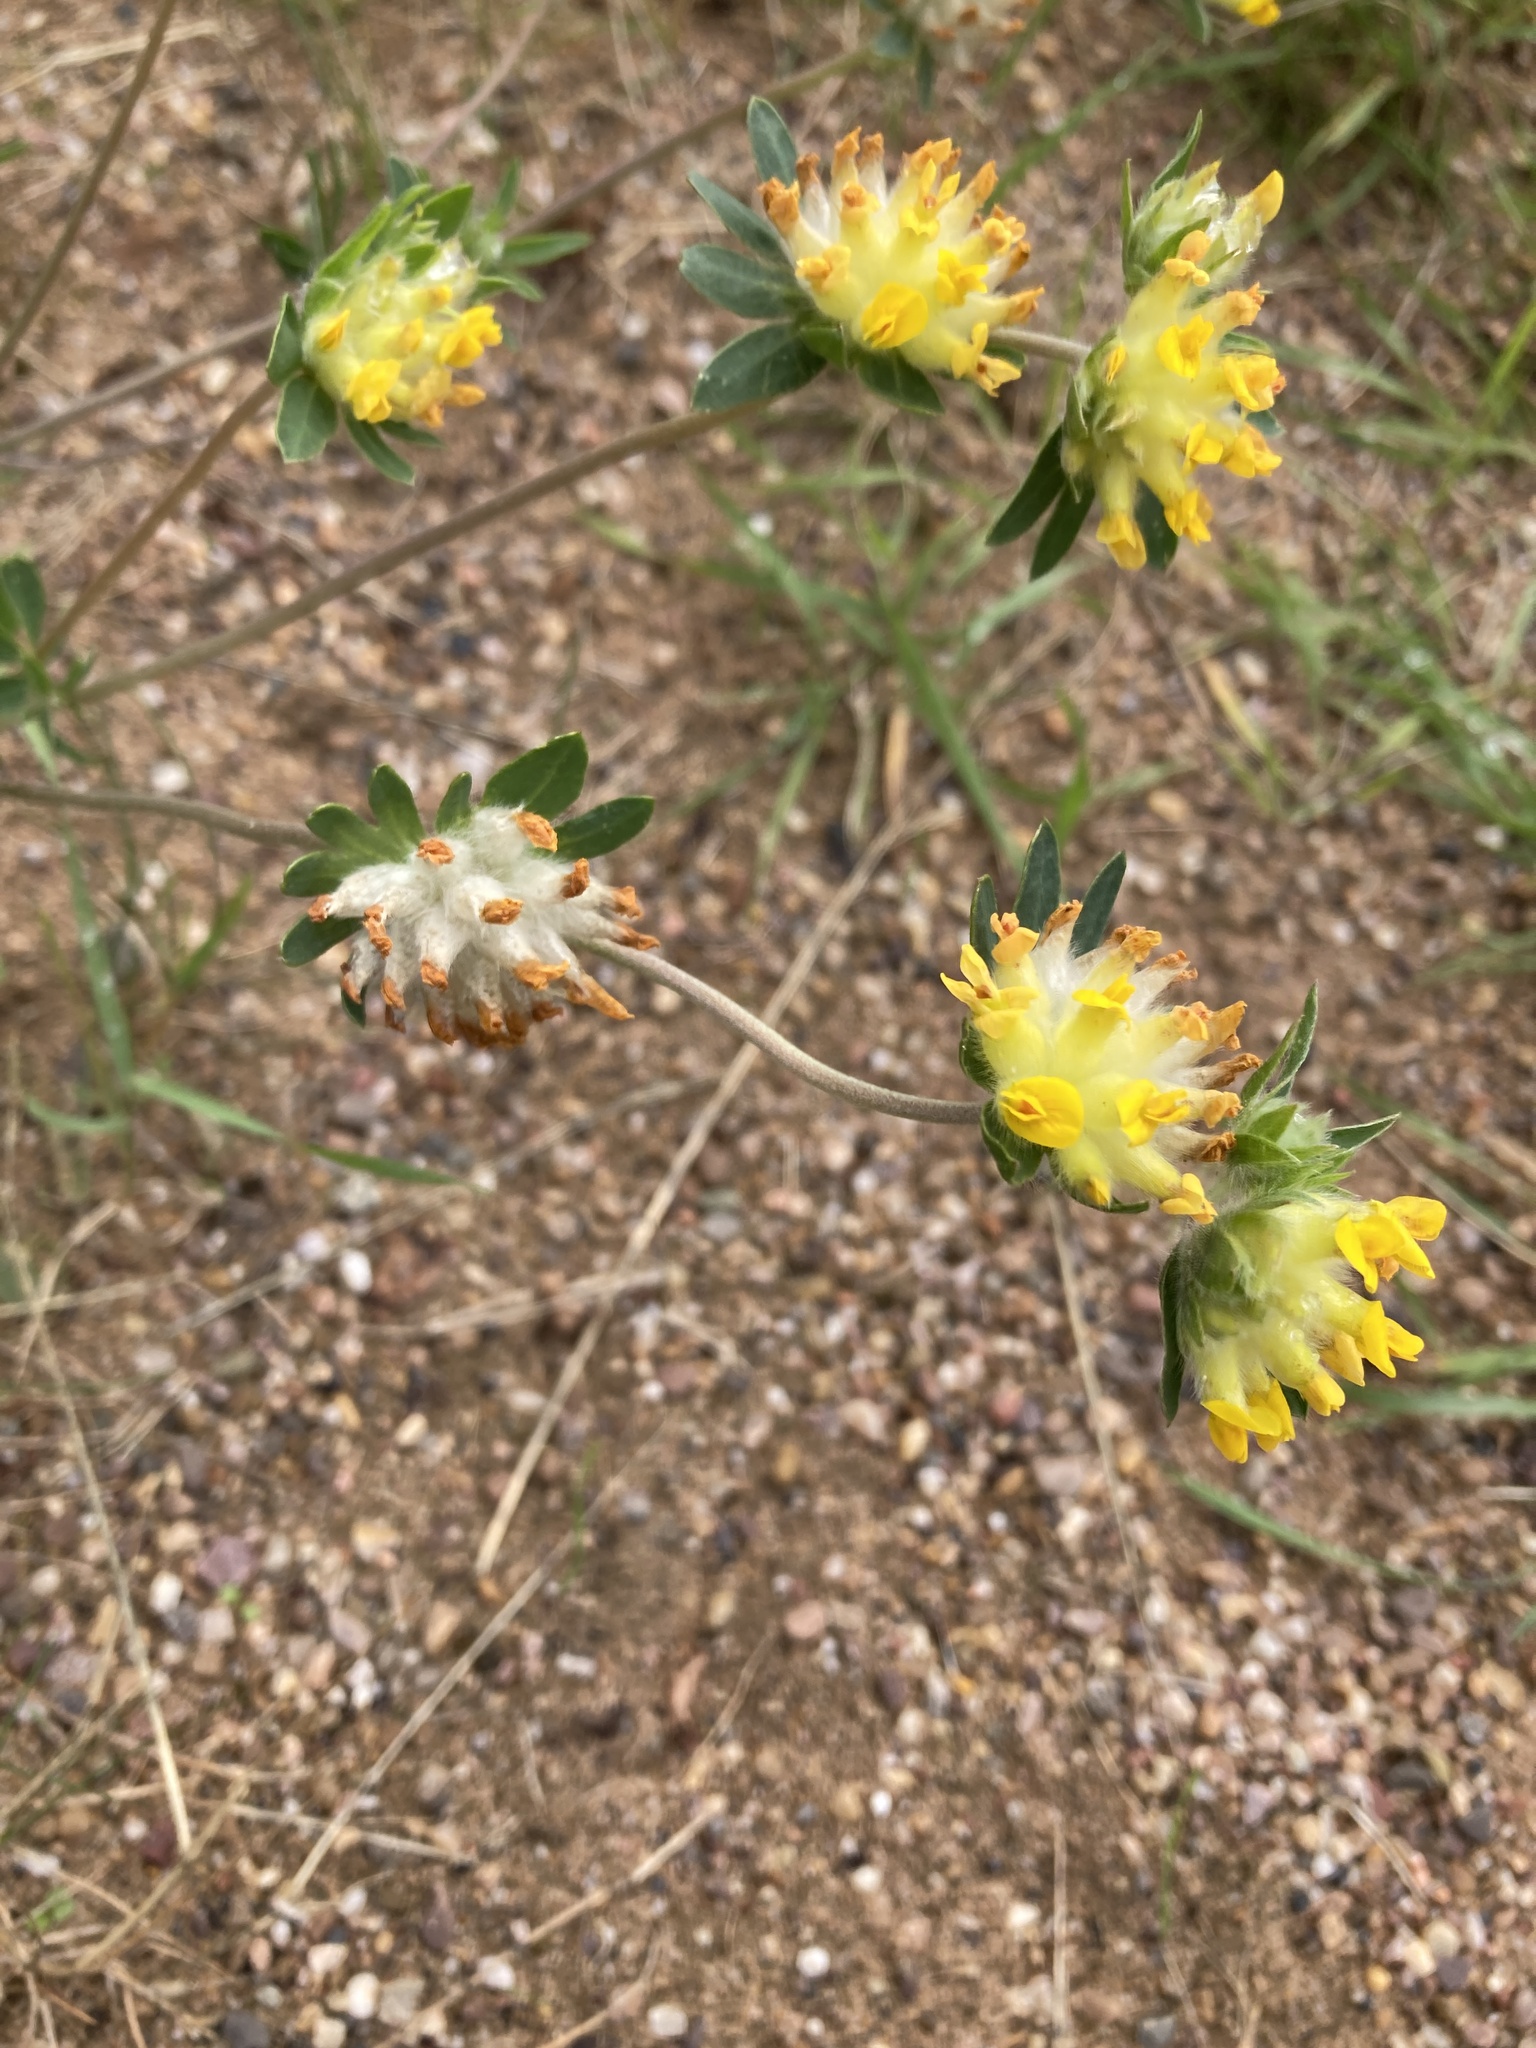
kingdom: Plantae
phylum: Tracheophyta
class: Magnoliopsida
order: Fabales
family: Fabaceae
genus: Anthyllis
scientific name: Anthyllis vulneraria
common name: Kidney vetch
